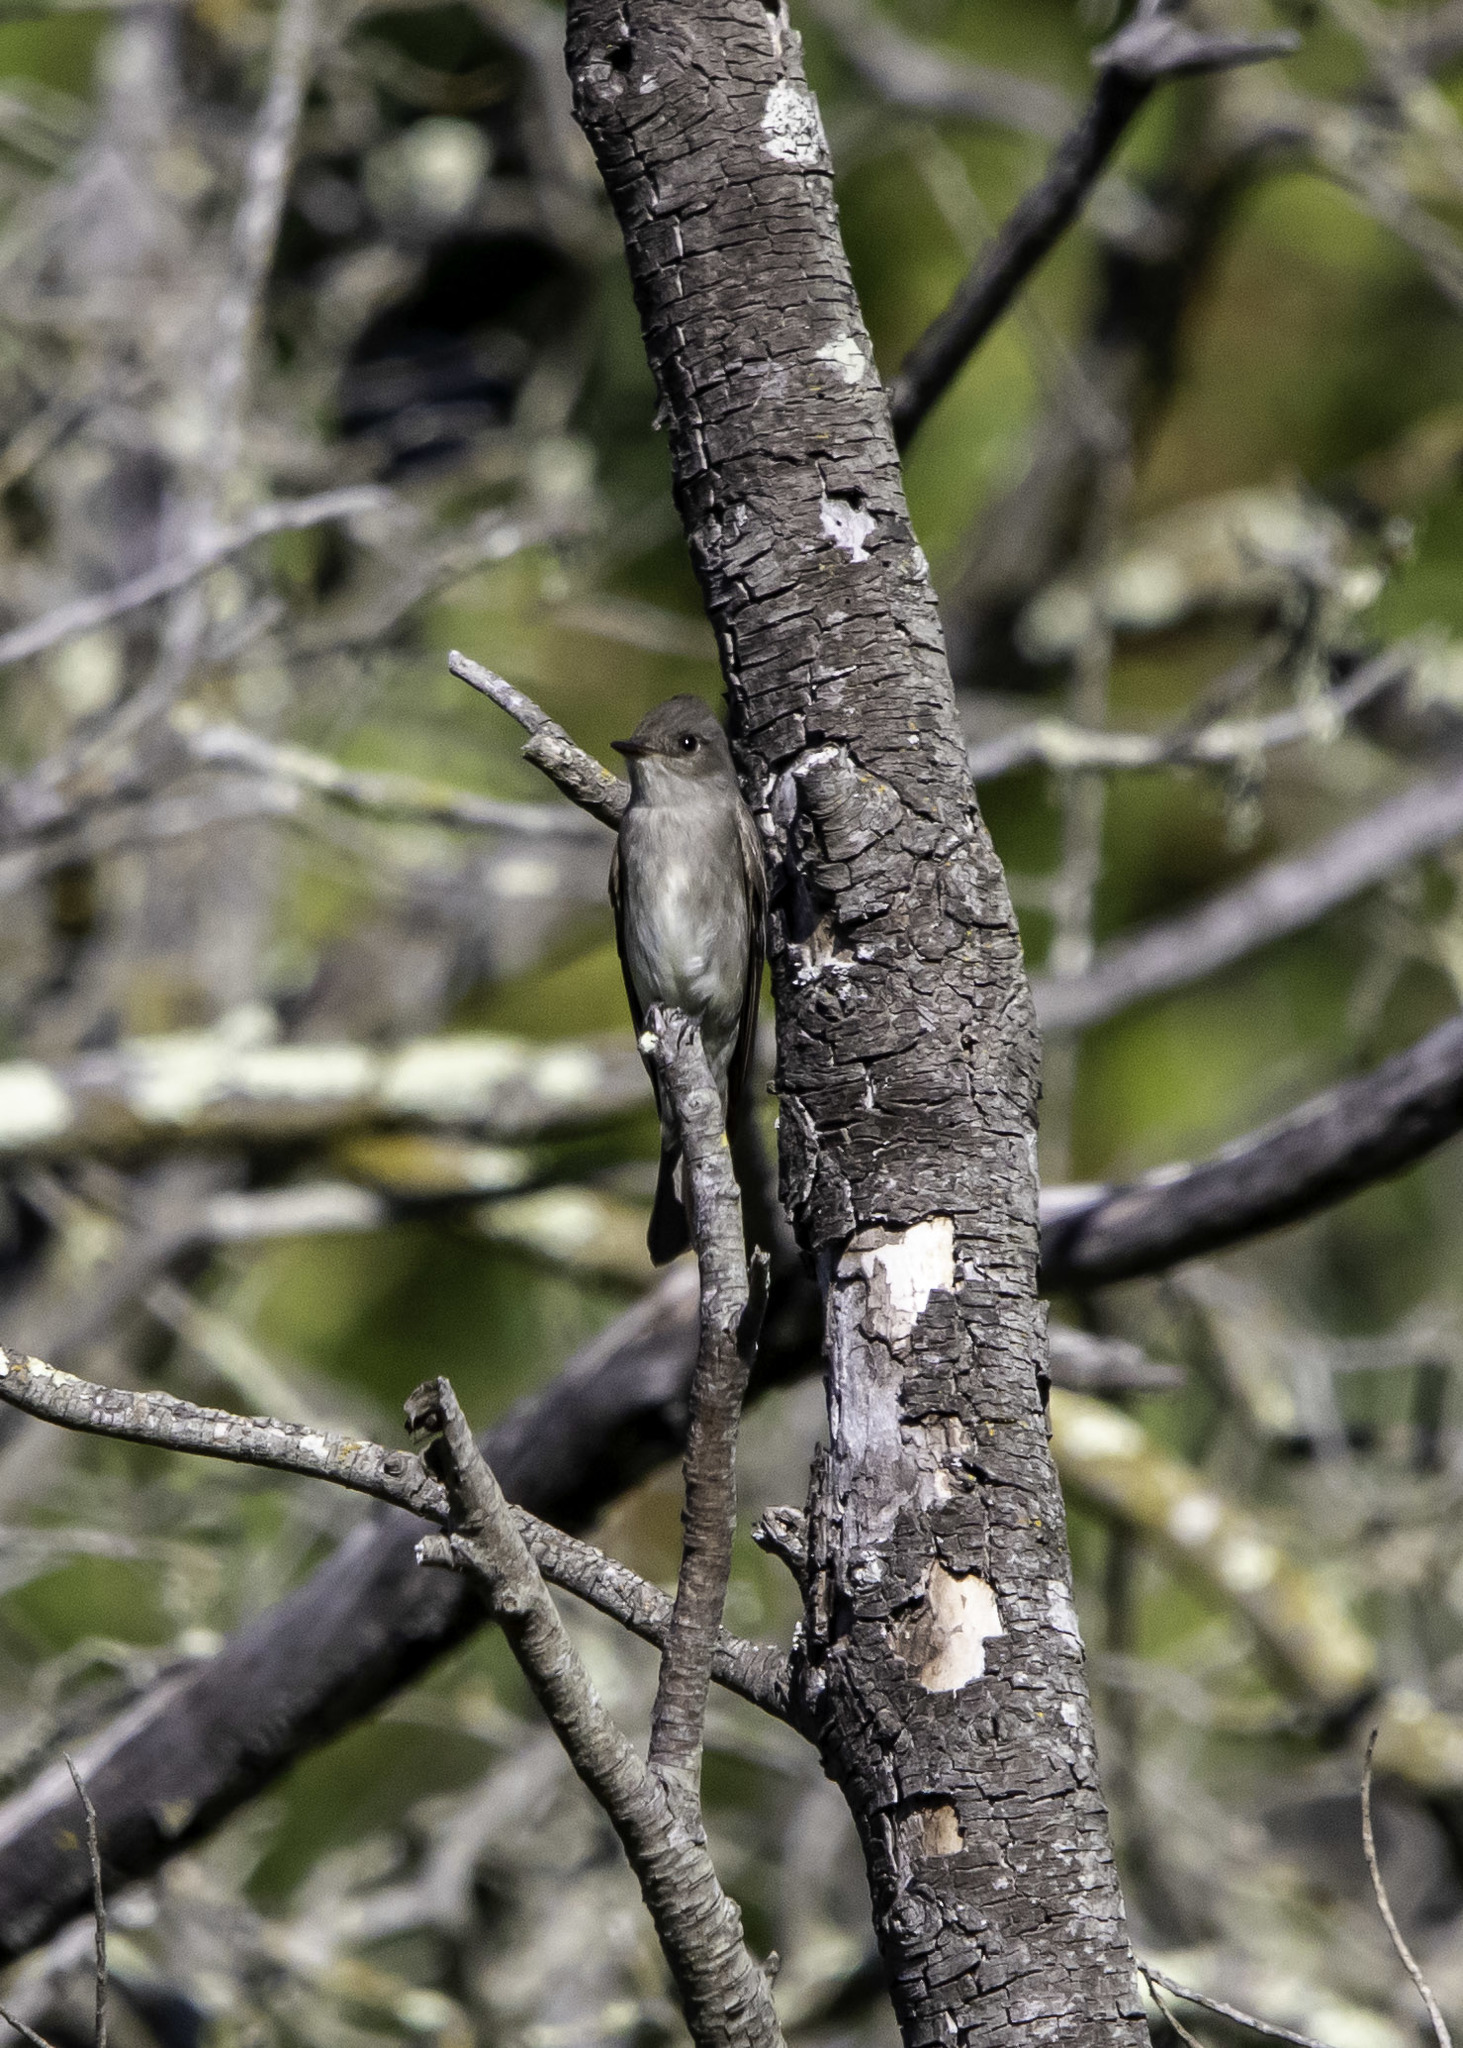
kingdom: Animalia
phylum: Chordata
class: Aves
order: Passeriformes
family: Tyrannidae
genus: Contopus
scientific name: Contopus sordidulus
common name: Western wood-pewee
